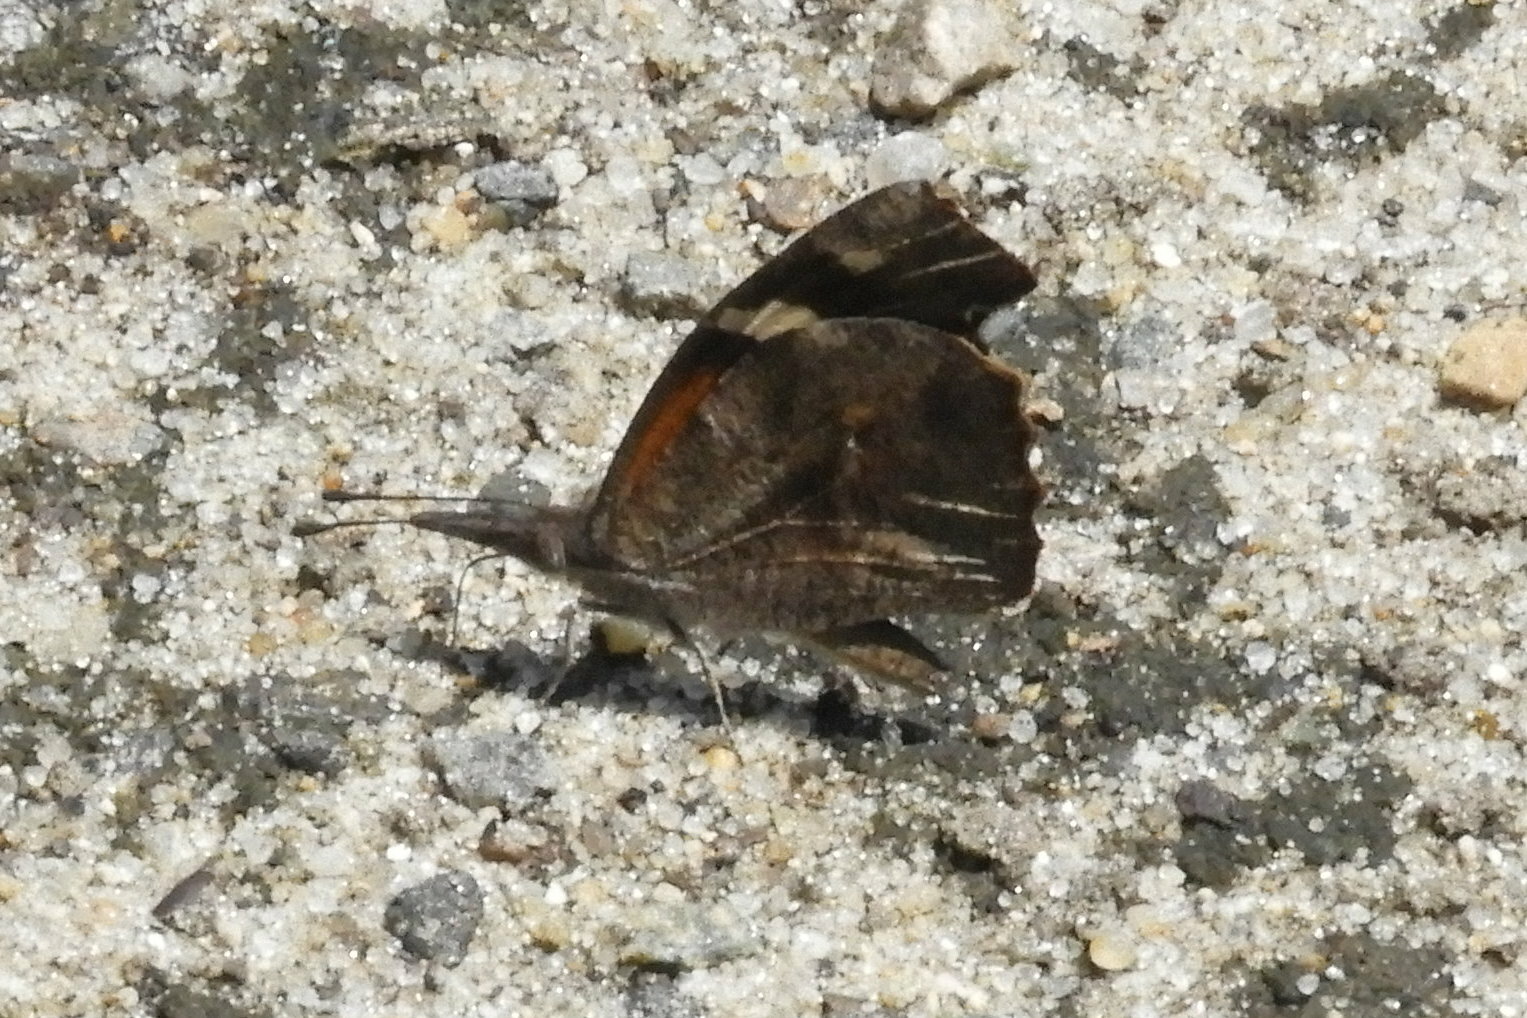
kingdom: Animalia
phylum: Arthropoda
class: Insecta
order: Lepidoptera
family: Nymphalidae
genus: Libytheana
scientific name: Libytheana carinenta
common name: American snout
